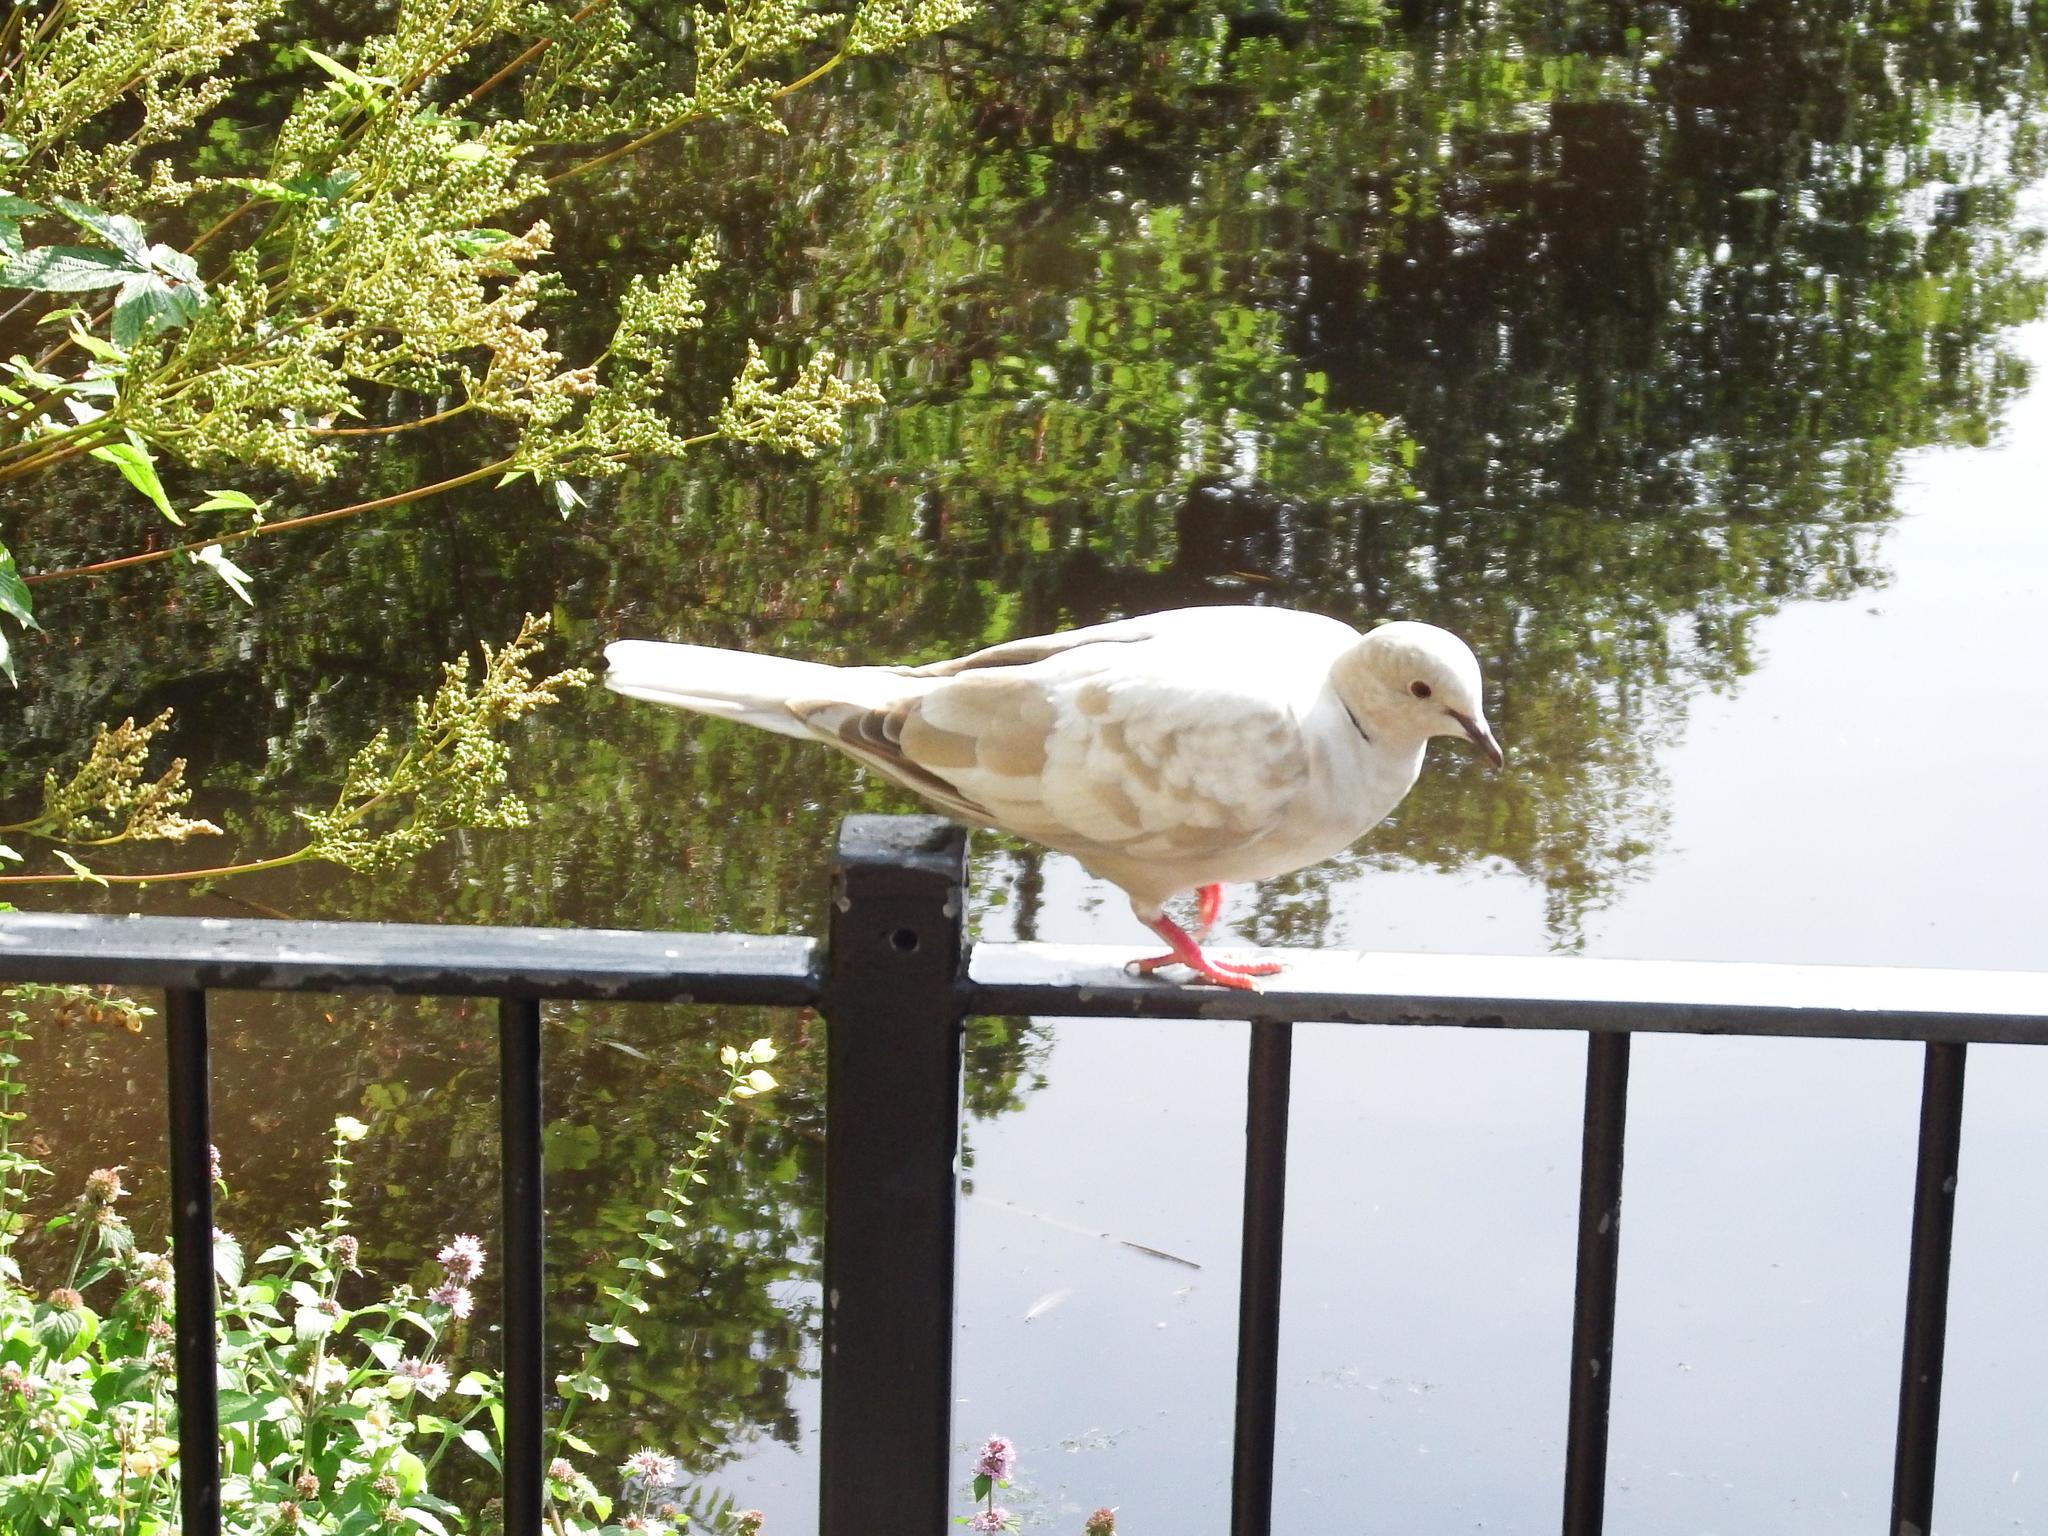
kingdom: Animalia
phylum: Chordata
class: Aves
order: Columbiformes
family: Columbidae
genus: Streptopelia
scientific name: Streptopelia decaocto
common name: Eurasian collared dove
